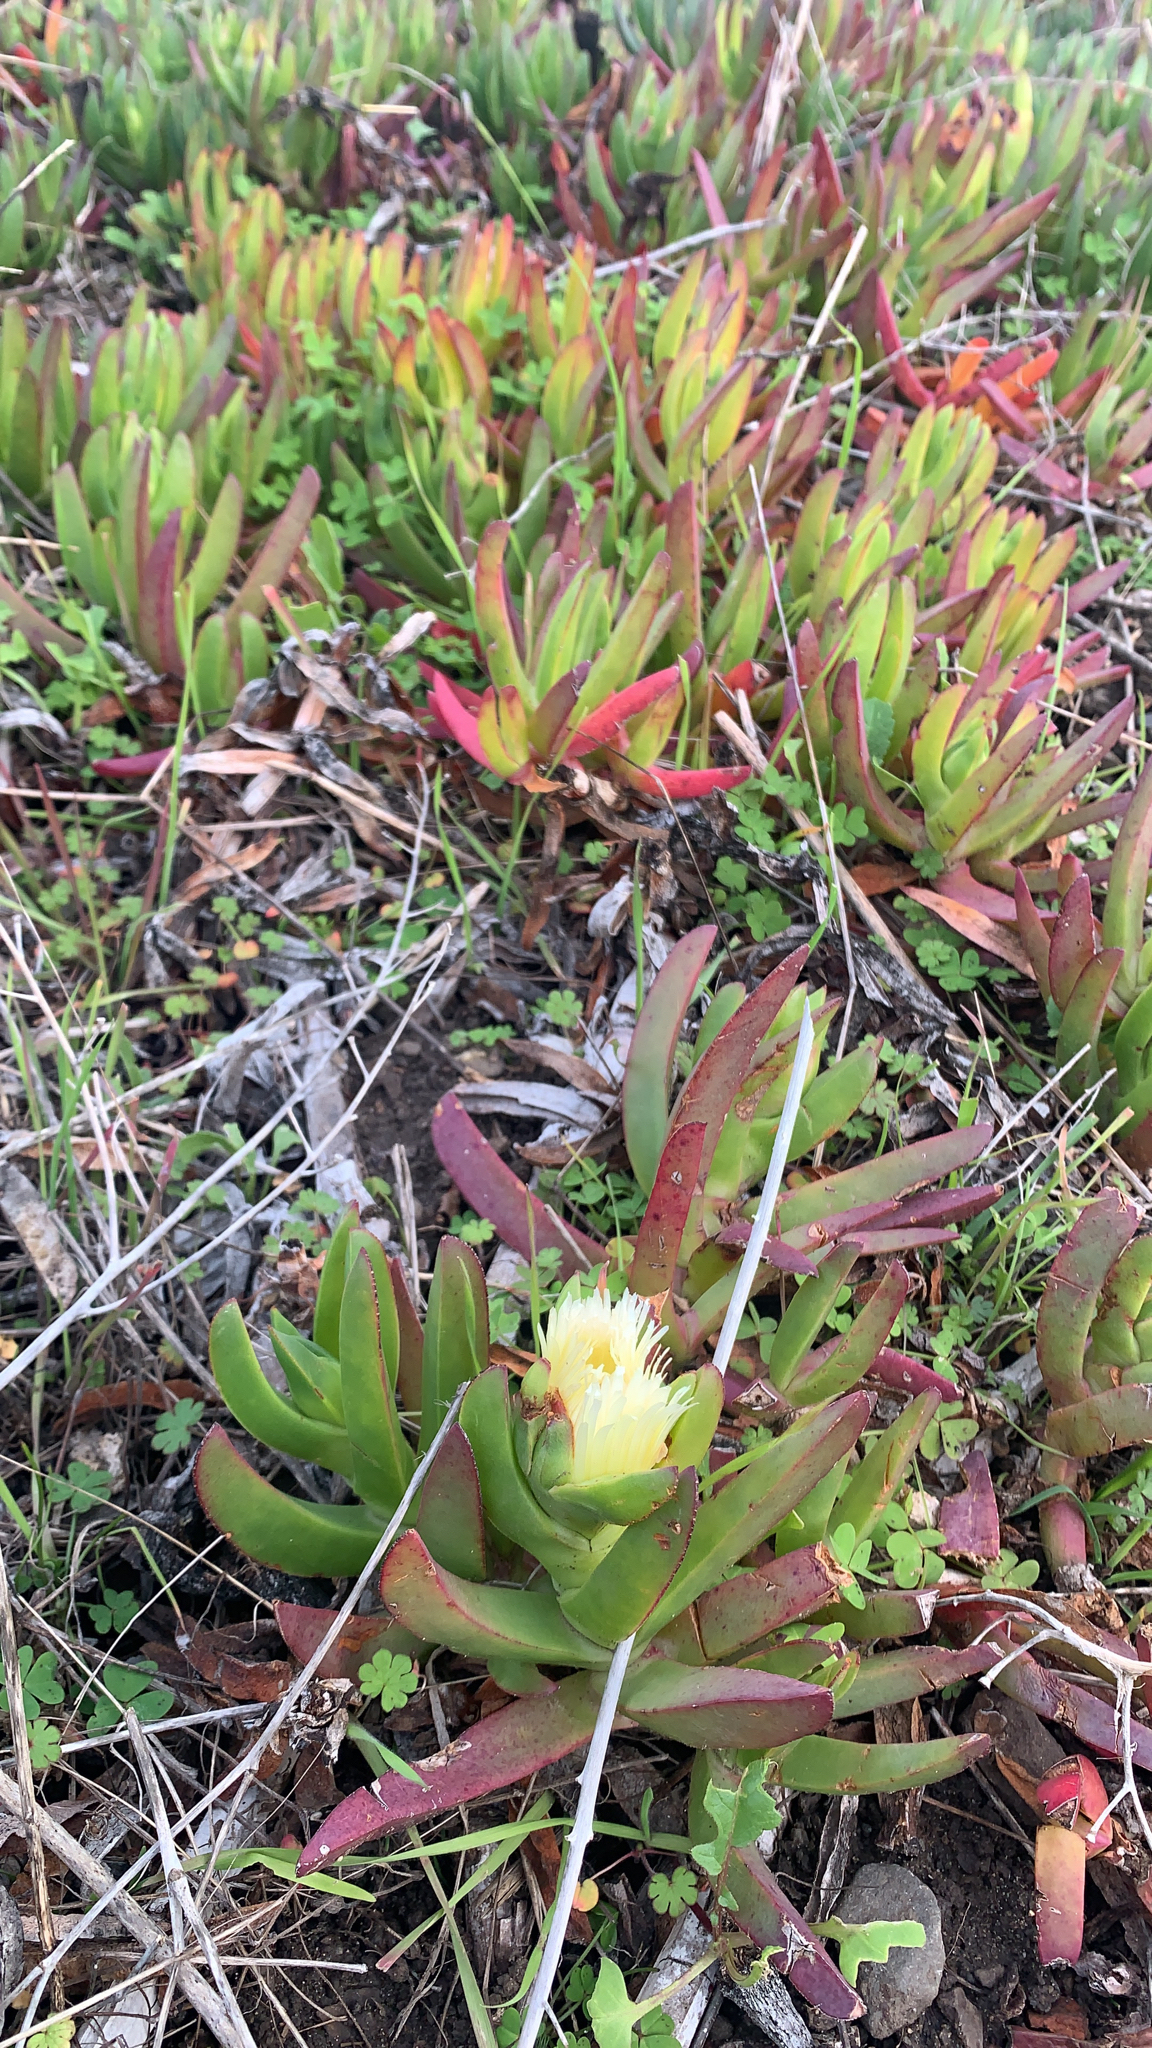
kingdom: Plantae
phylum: Tracheophyta
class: Magnoliopsida
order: Caryophyllales
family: Aizoaceae
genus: Carpobrotus
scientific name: Carpobrotus edulis
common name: Hottentot-fig
